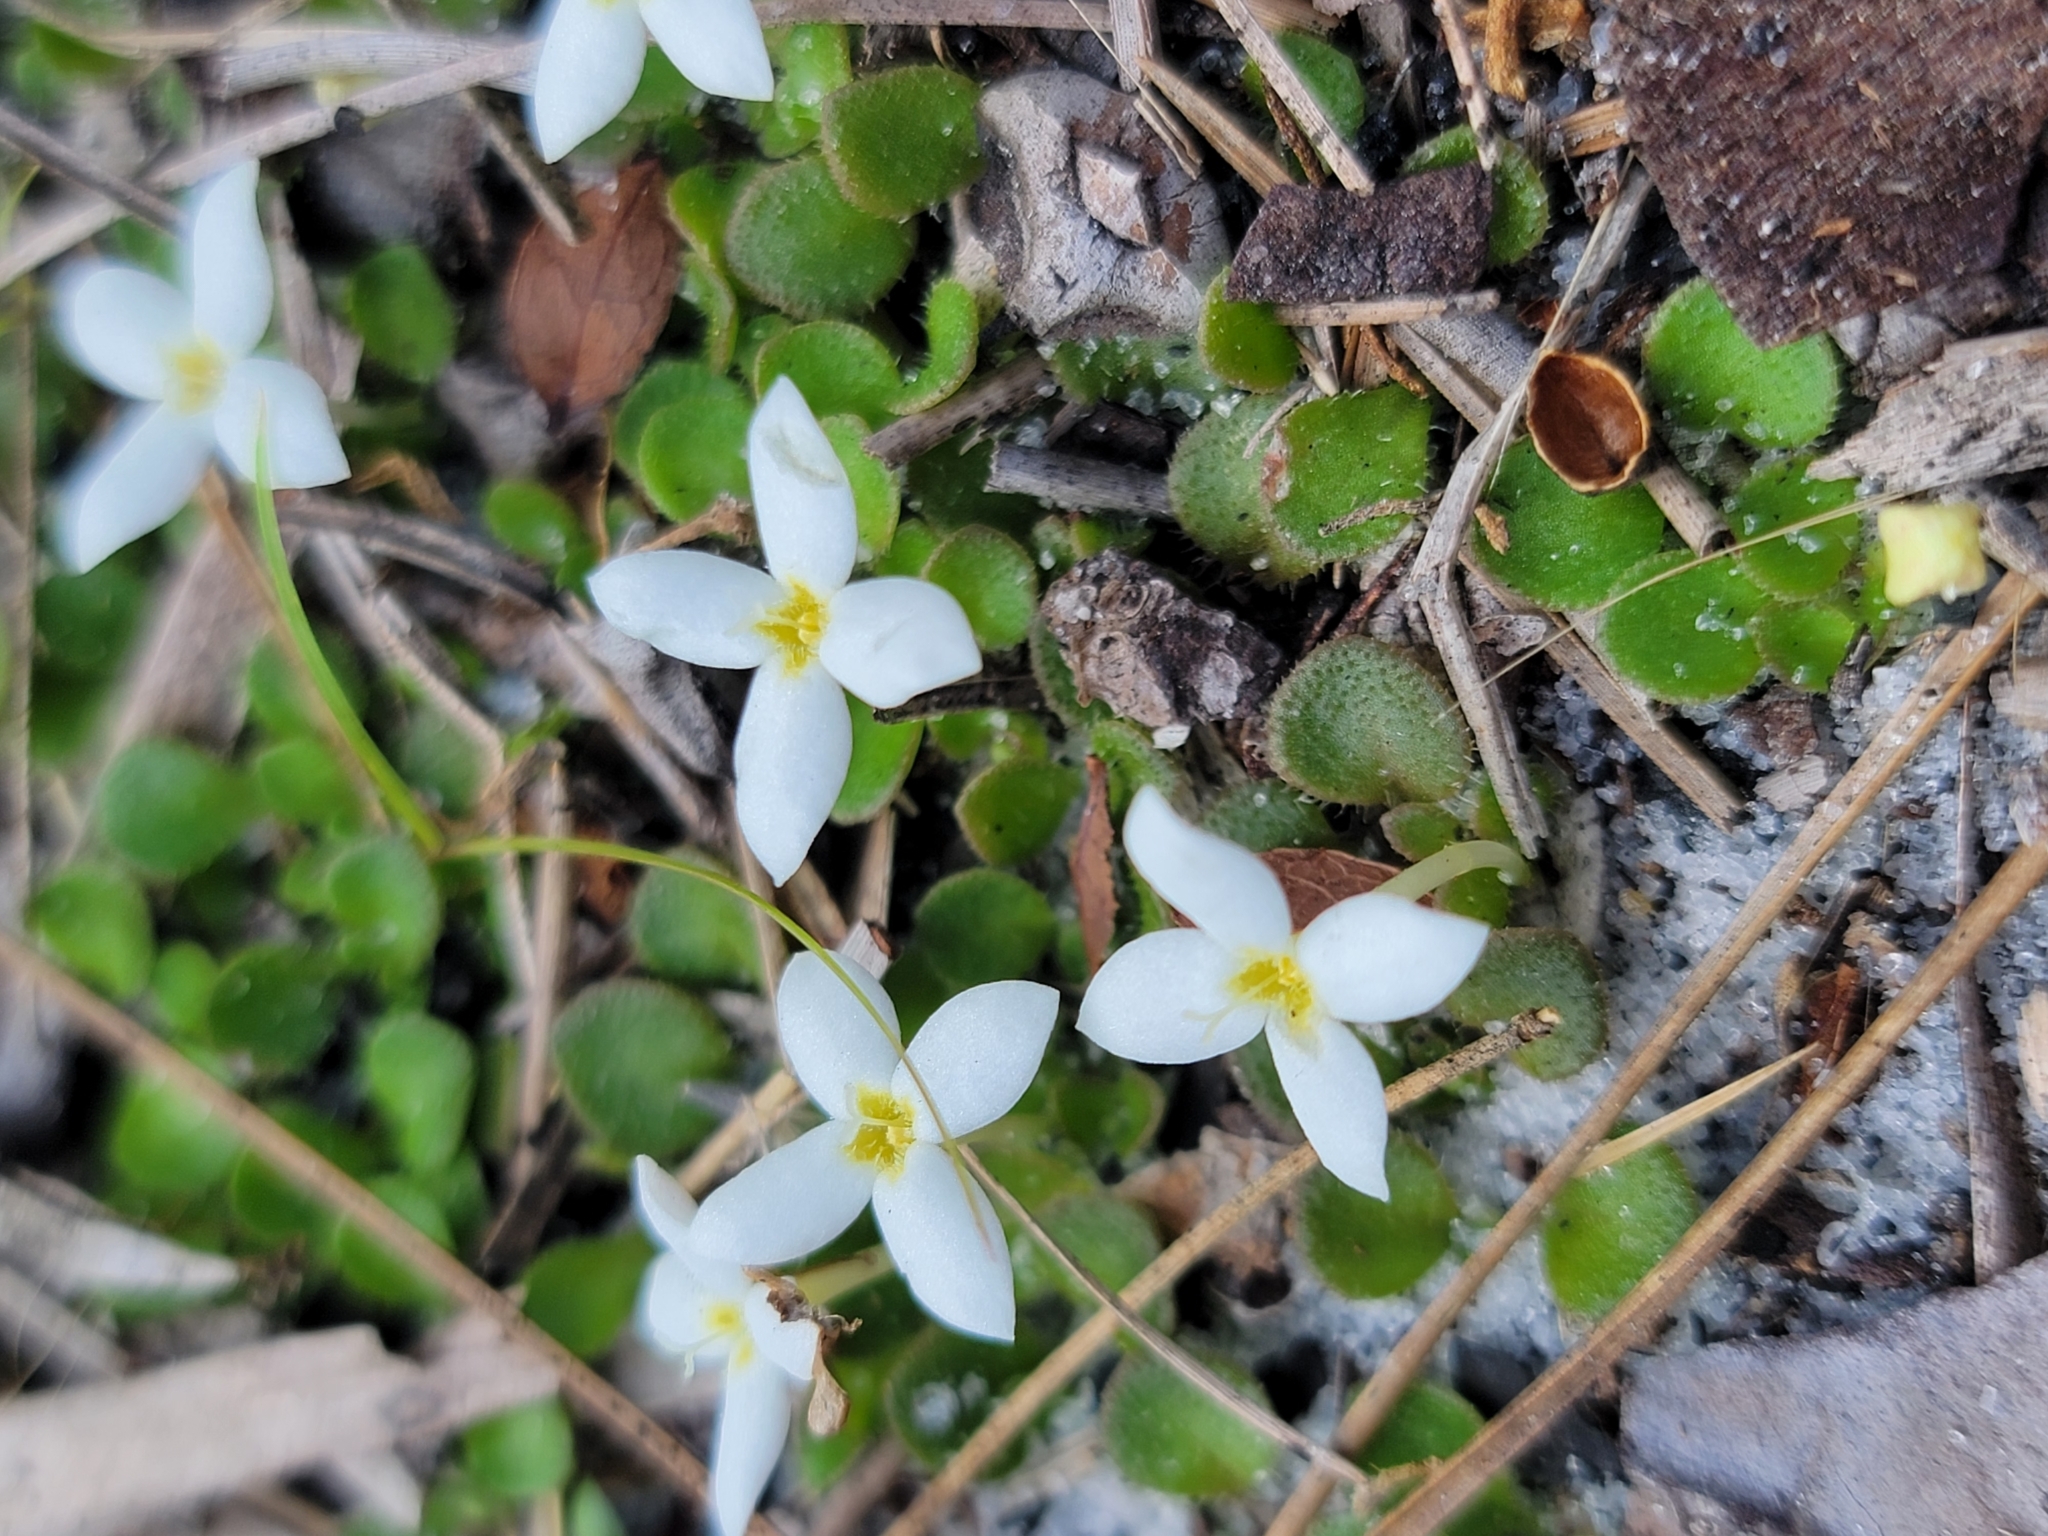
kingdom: Plantae
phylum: Tracheophyta
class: Magnoliopsida
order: Gentianales
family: Rubiaceae
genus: Houstonia
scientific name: Houstonia procumbens
